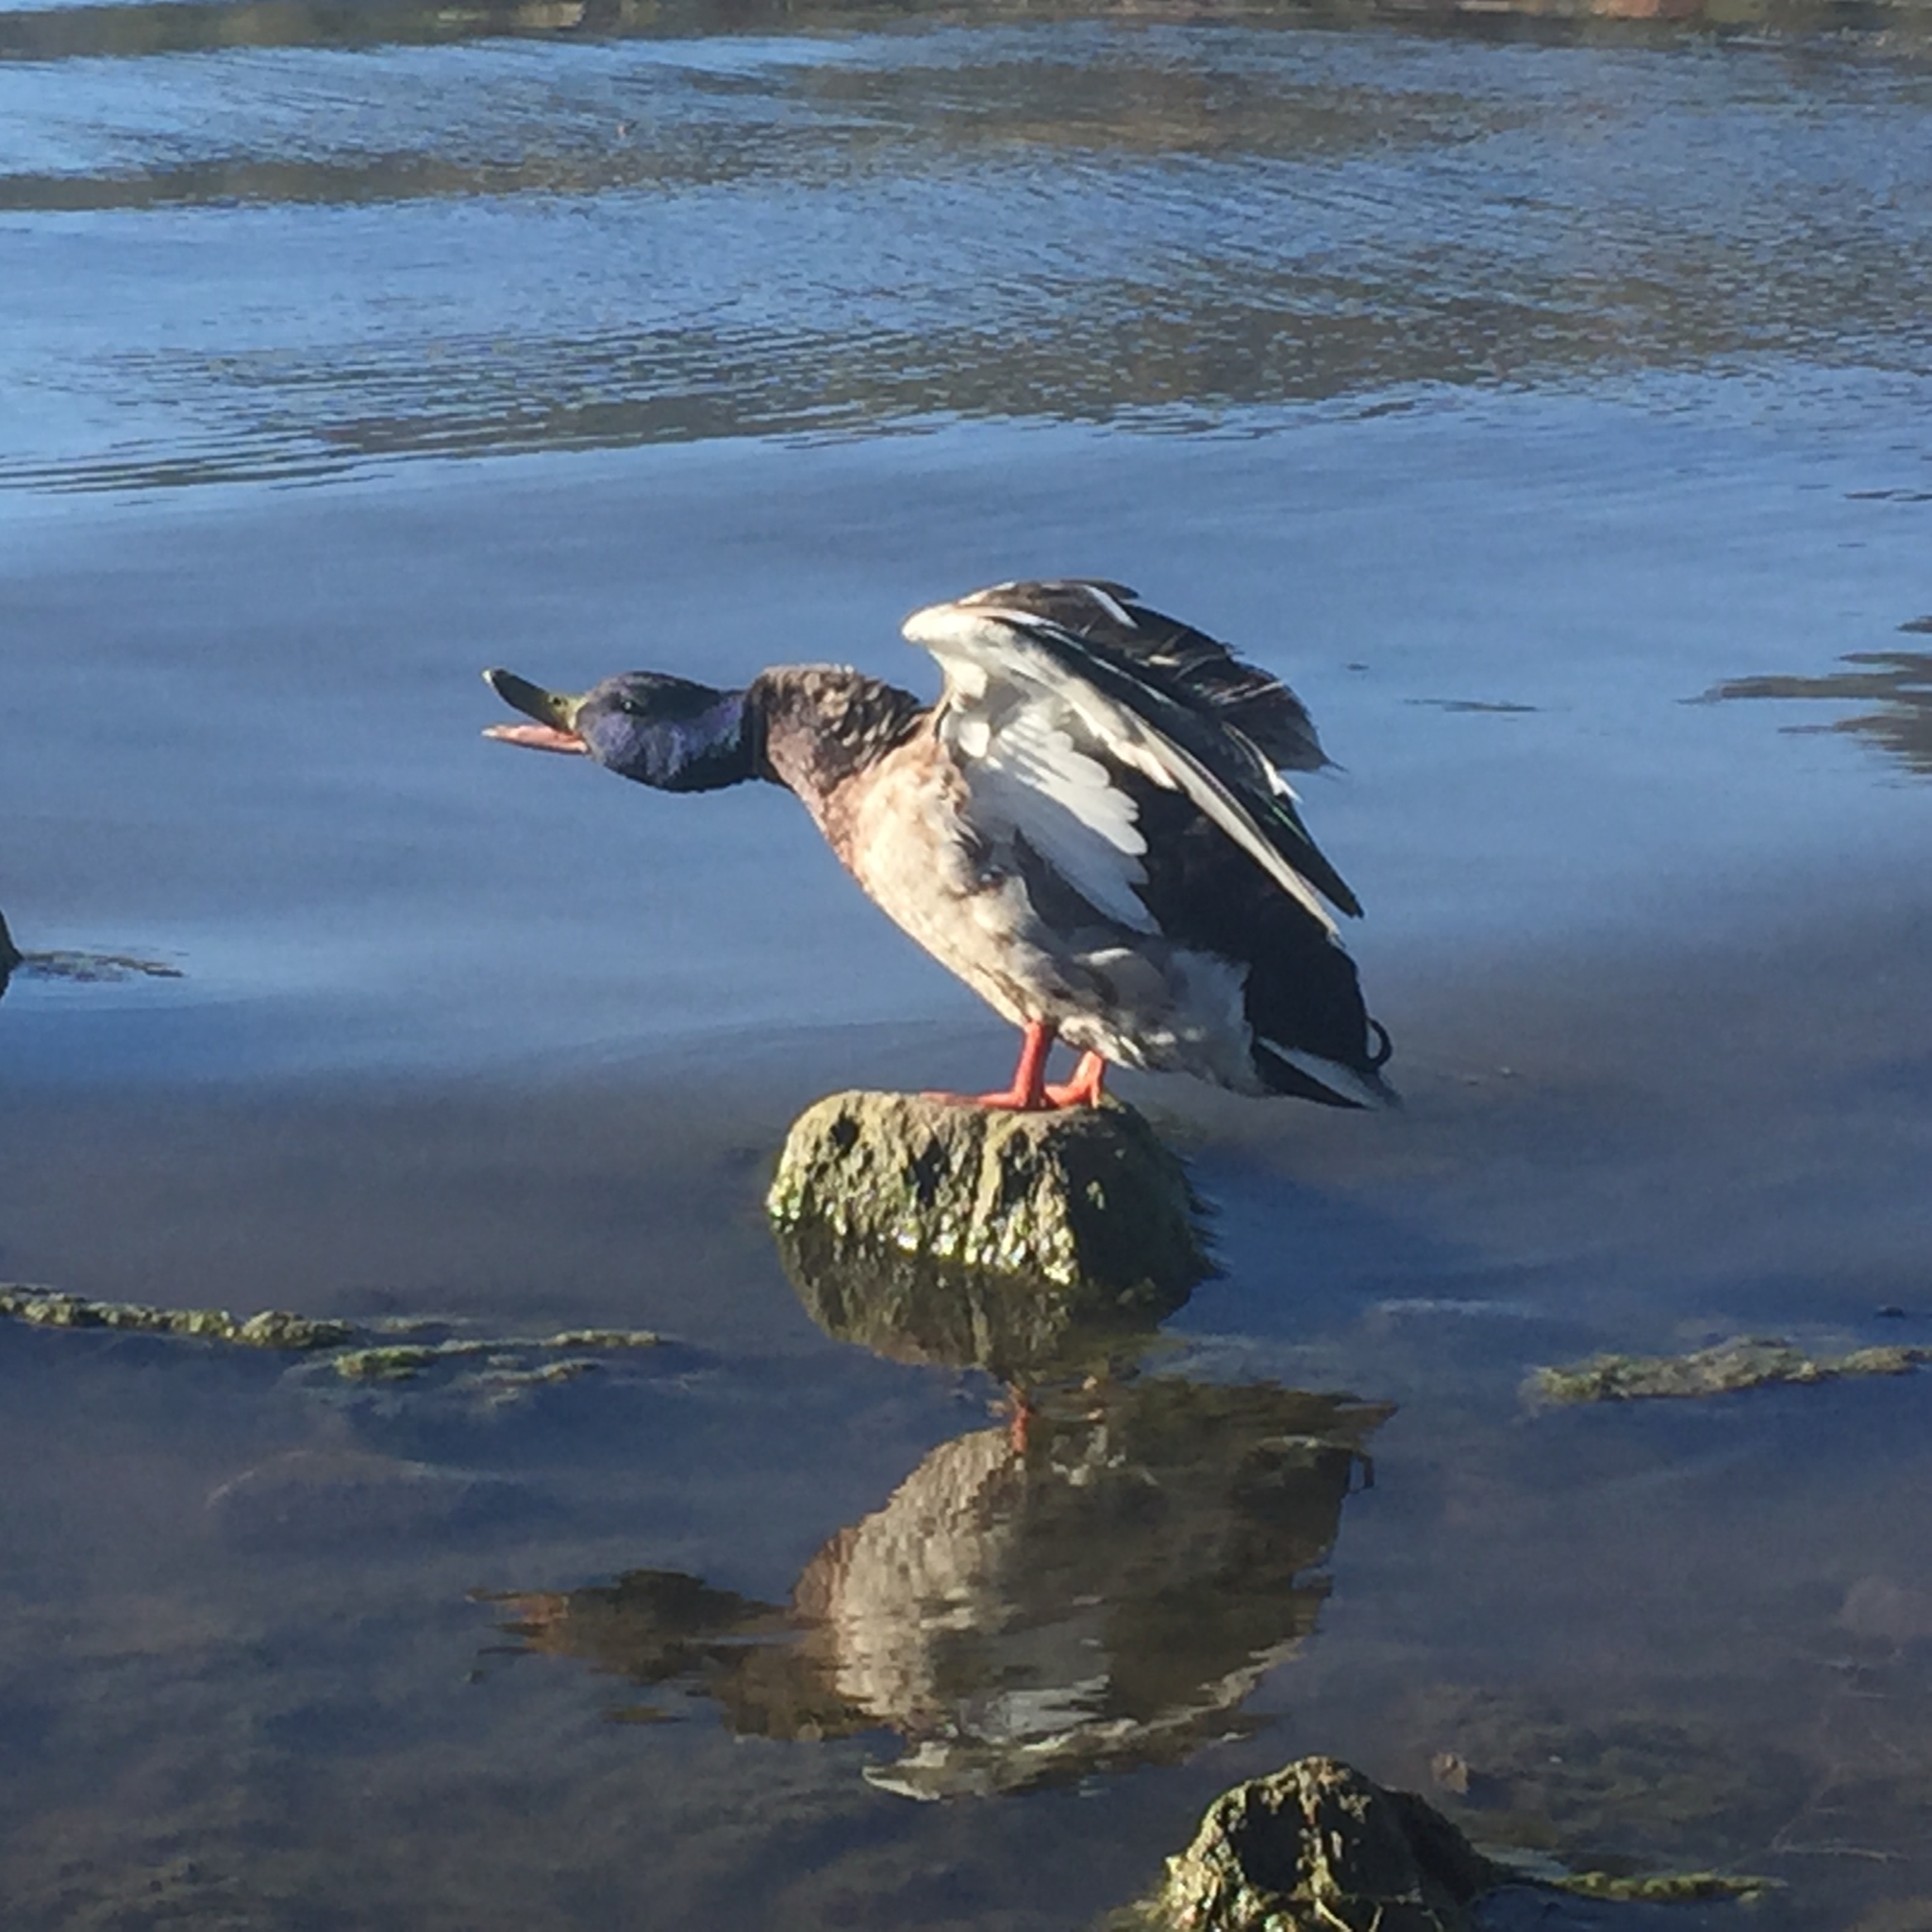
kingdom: Animalia
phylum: Chordata
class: Aves
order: Anseriformes
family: Anatidae
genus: Anas
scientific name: Anas platyrhynchos
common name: Mallard
